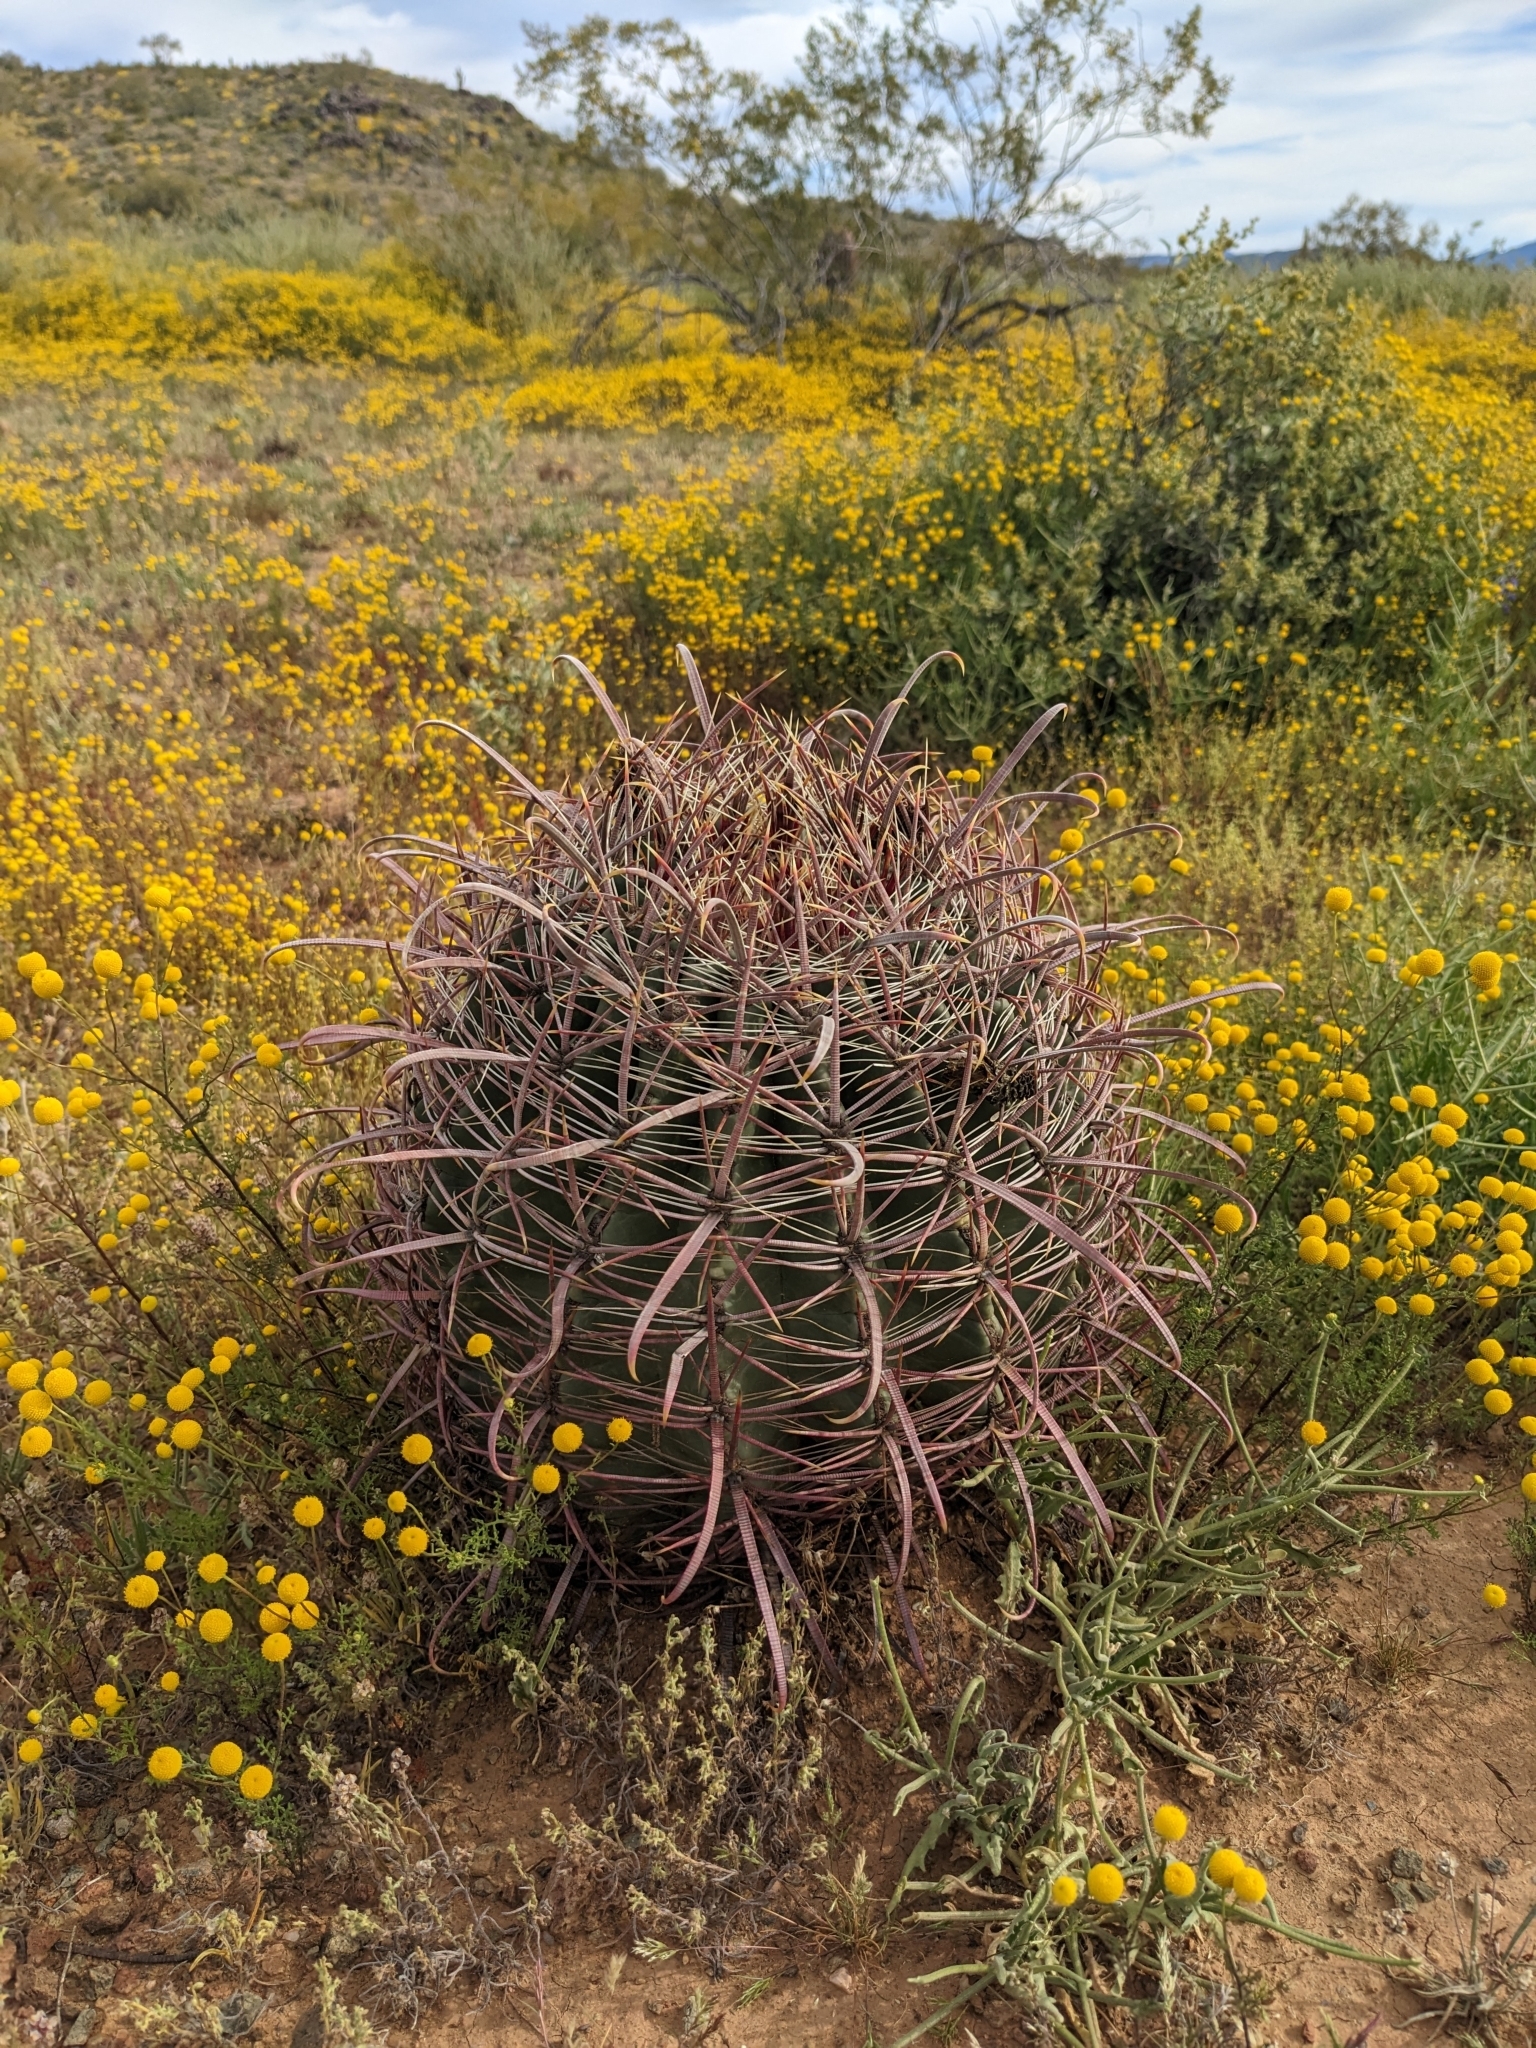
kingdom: Plantae
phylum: Tracheophyta
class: Magnoliopsida
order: Caryophyllales
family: Cactaceae
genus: Ferocactus
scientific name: Ferocactus cylindraceus
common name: California barrel cactus
